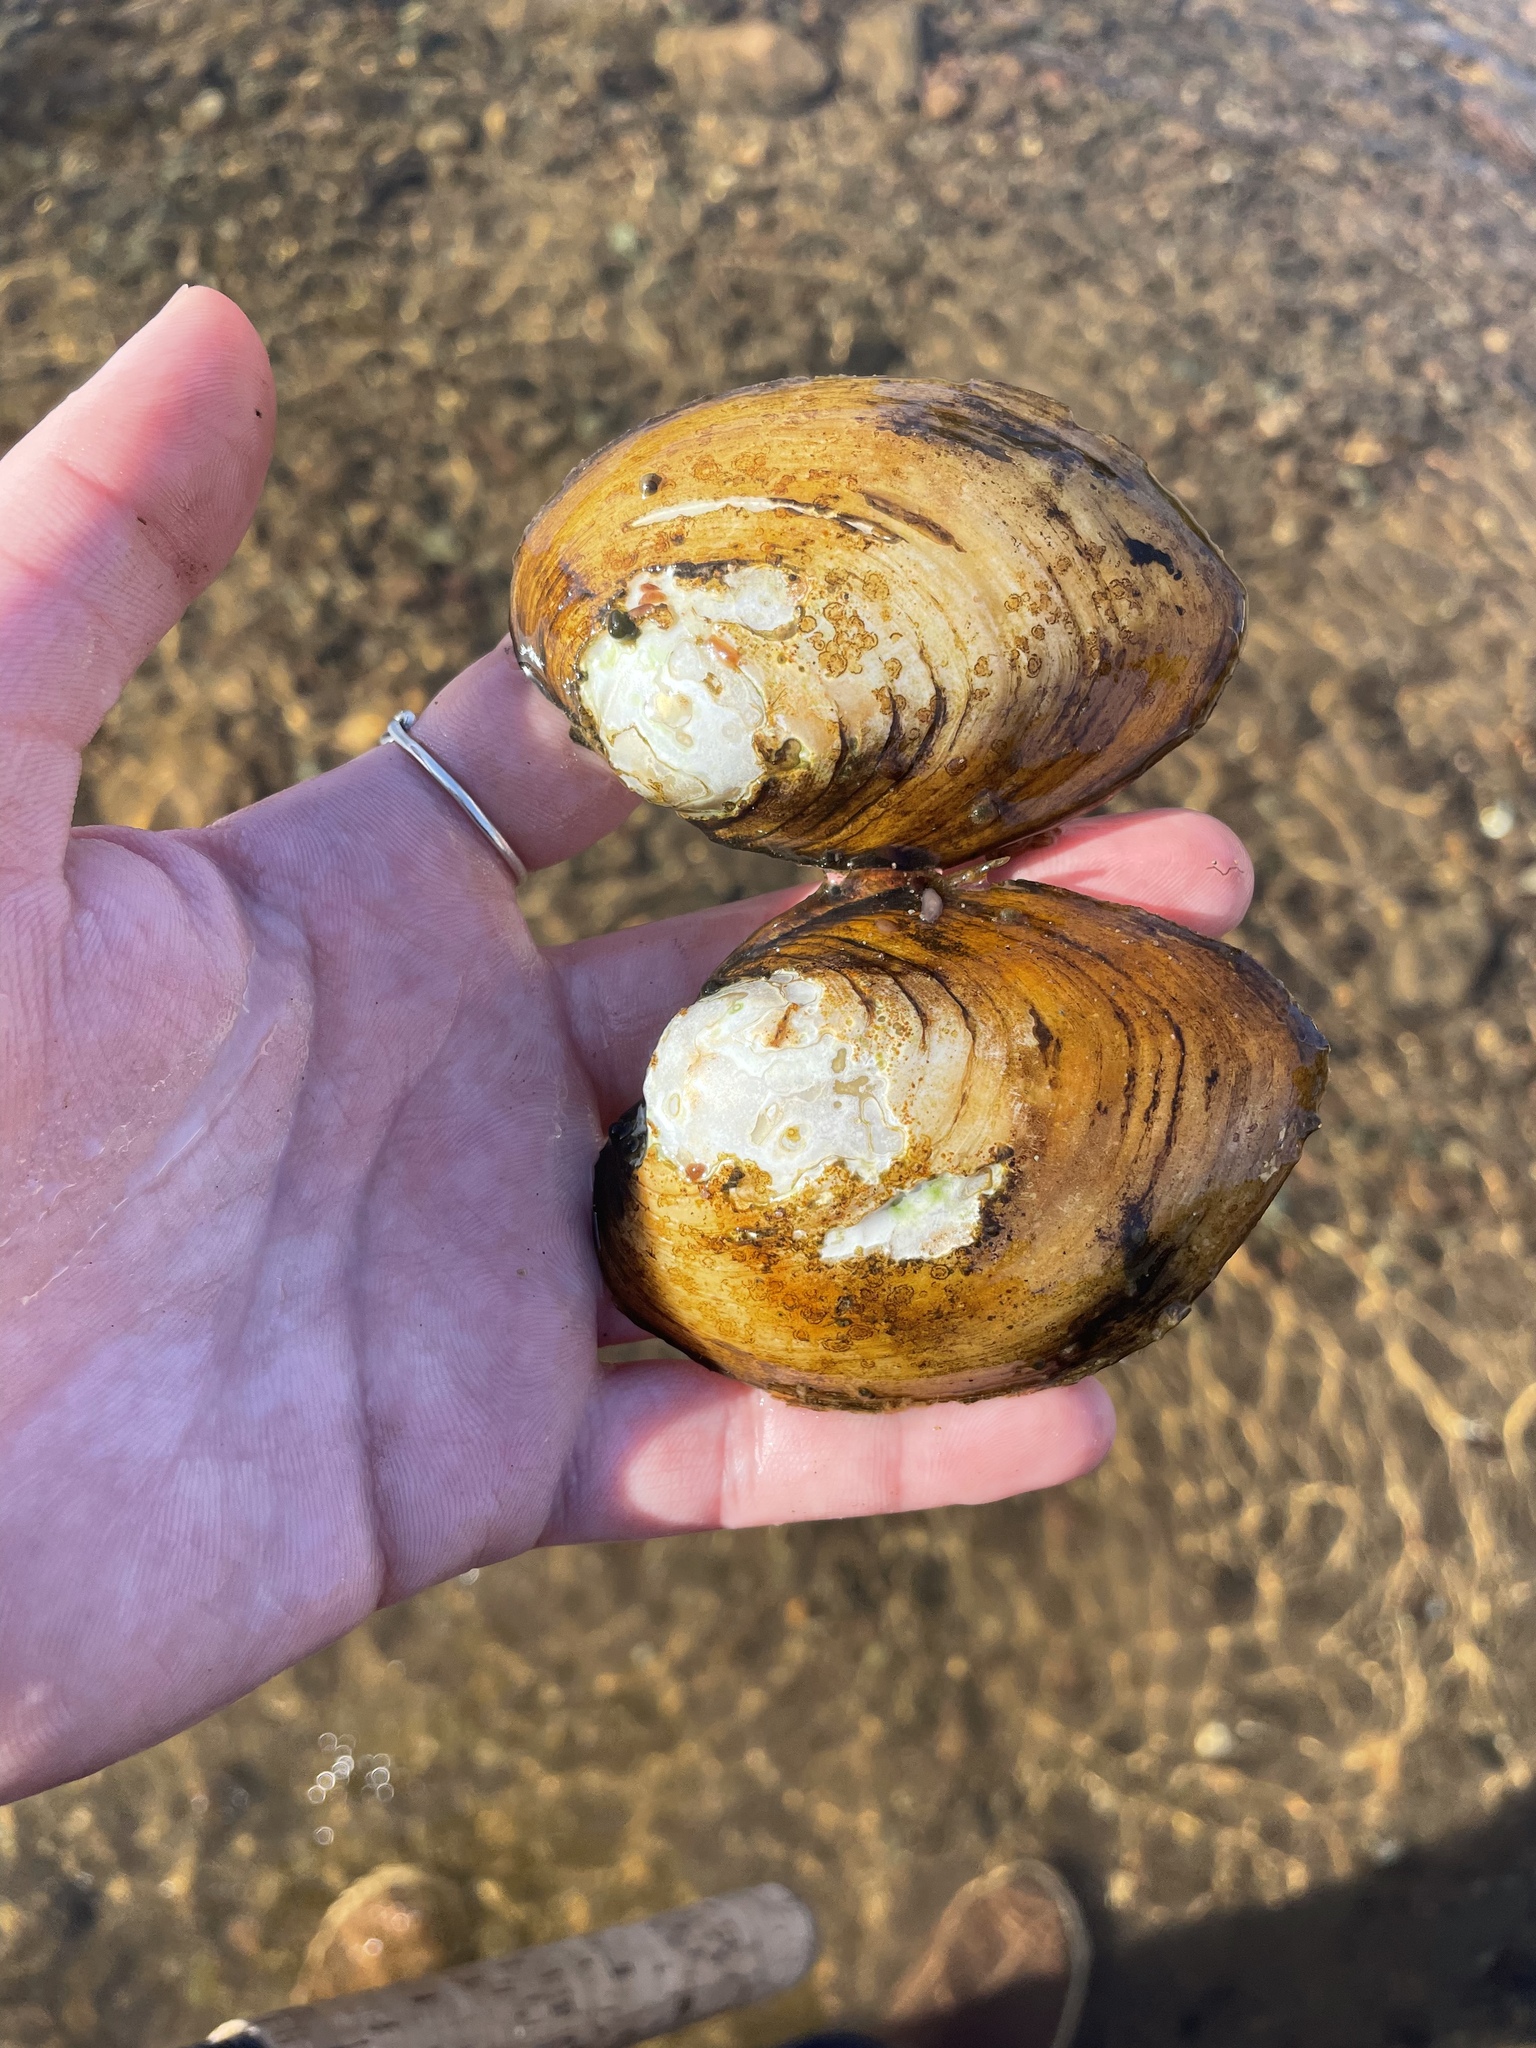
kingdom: Animalia
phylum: Mollusca
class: Bivalvia
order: Unionida
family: Unionidae
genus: Lampsilis
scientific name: Lampsilis cariosa
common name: Yellow lampmussel
